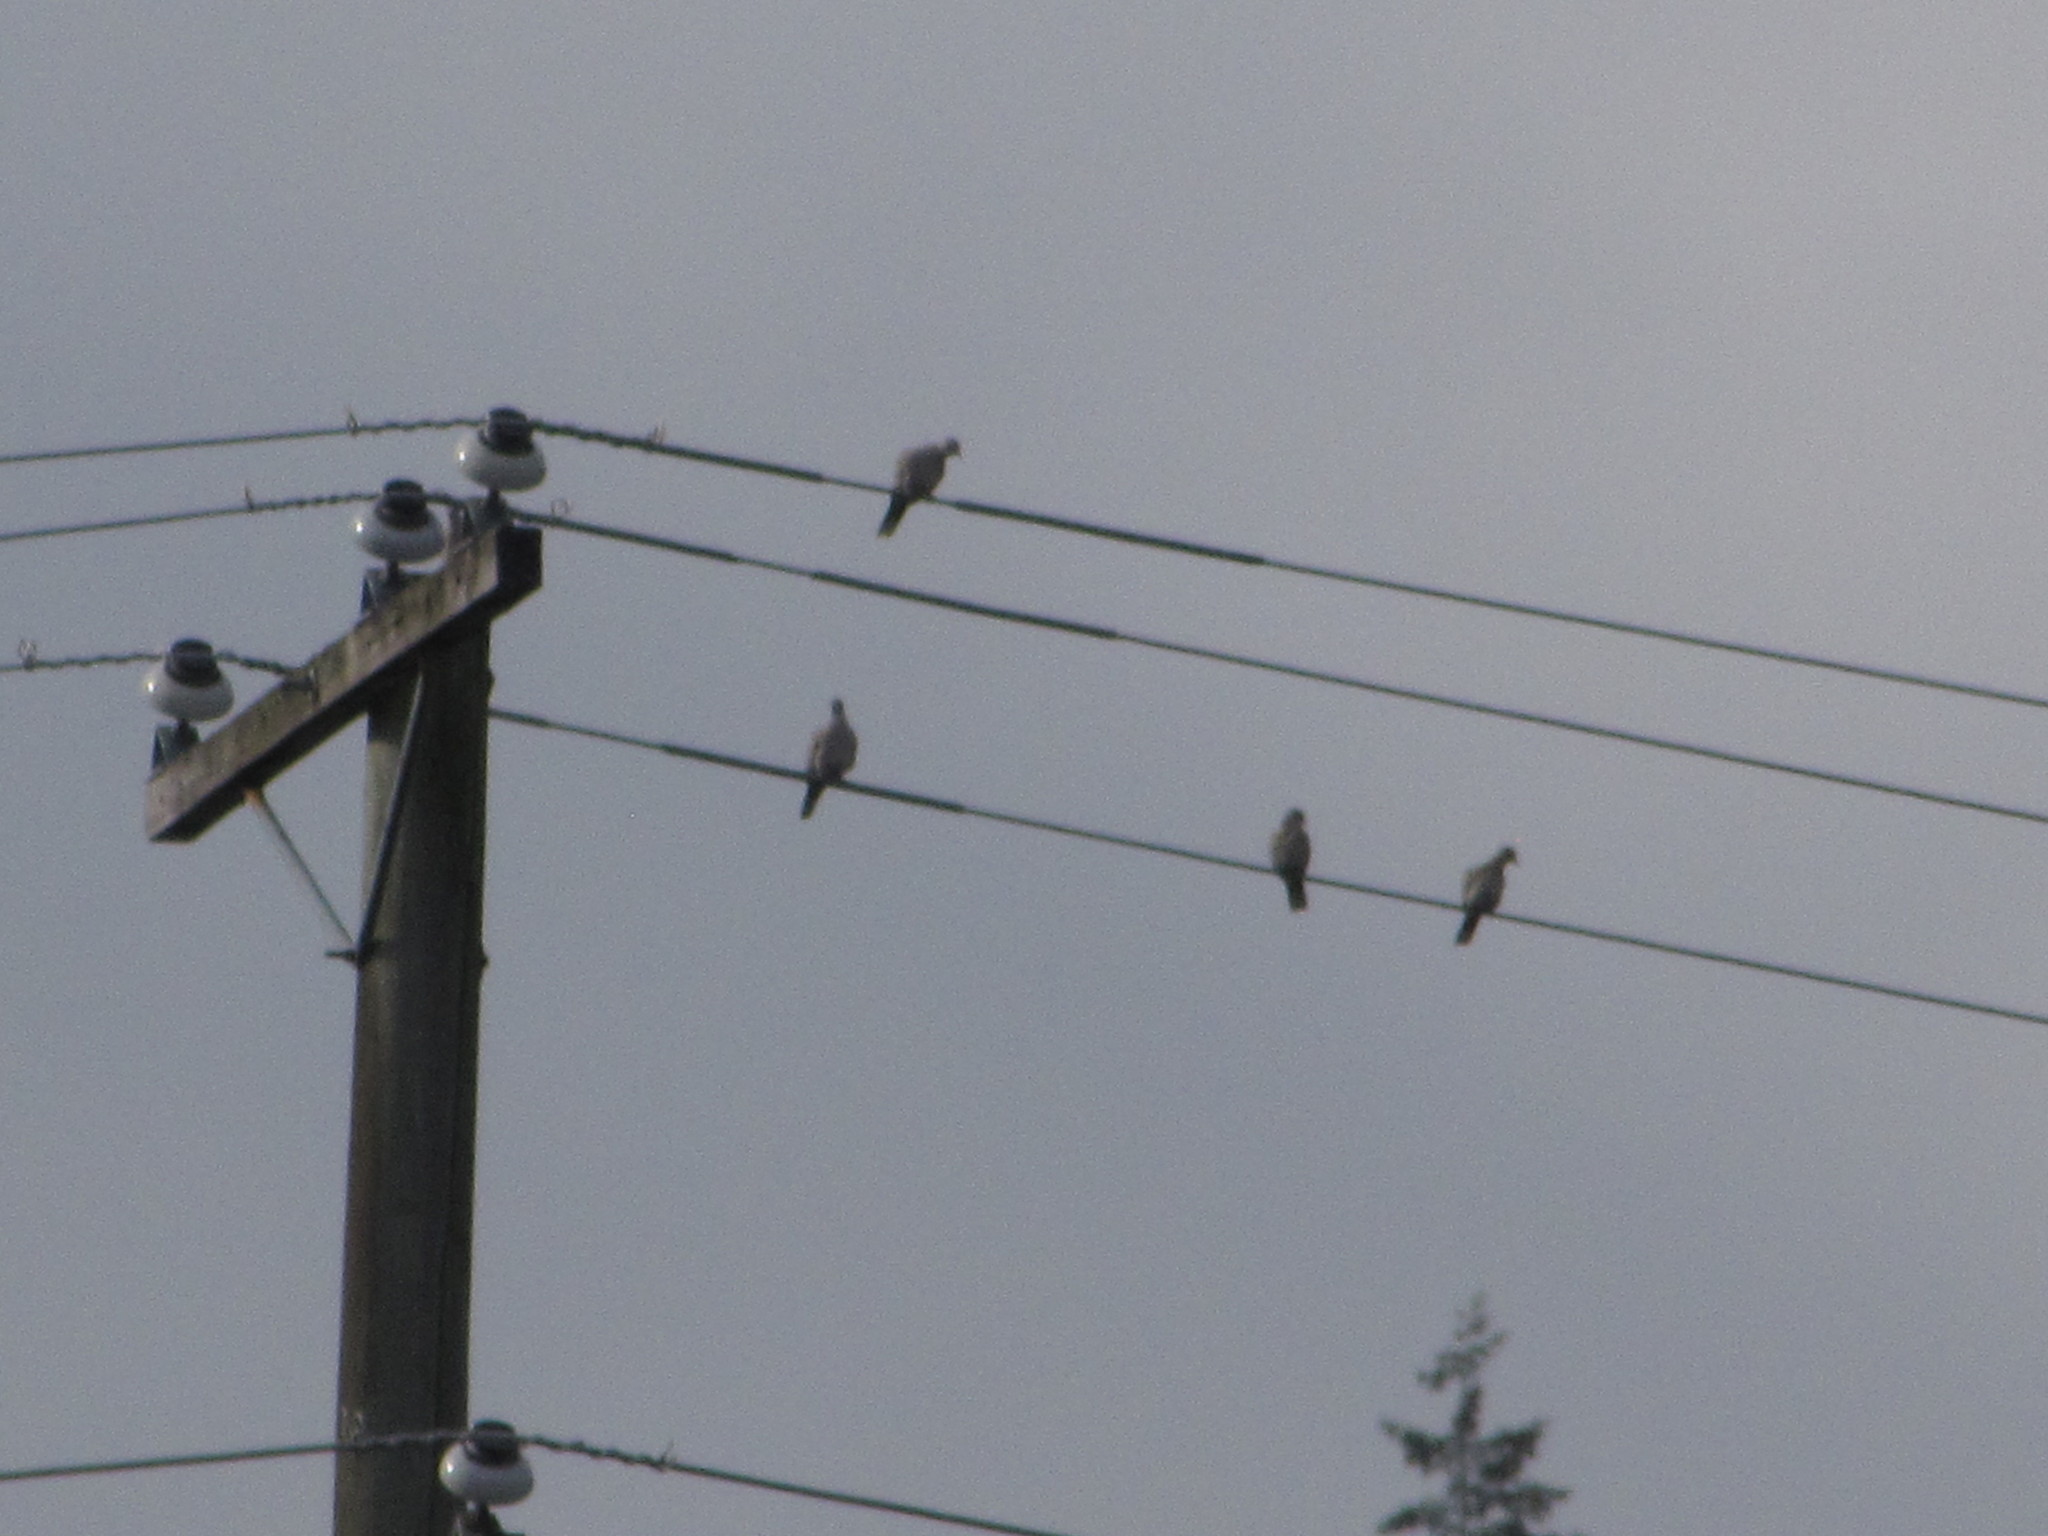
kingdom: Animalia
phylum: Chordata
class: Aves
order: Columbiformes
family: Columbidae
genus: Streptopelia
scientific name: Streptopelia decaocto
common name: Eurasian collared dove
